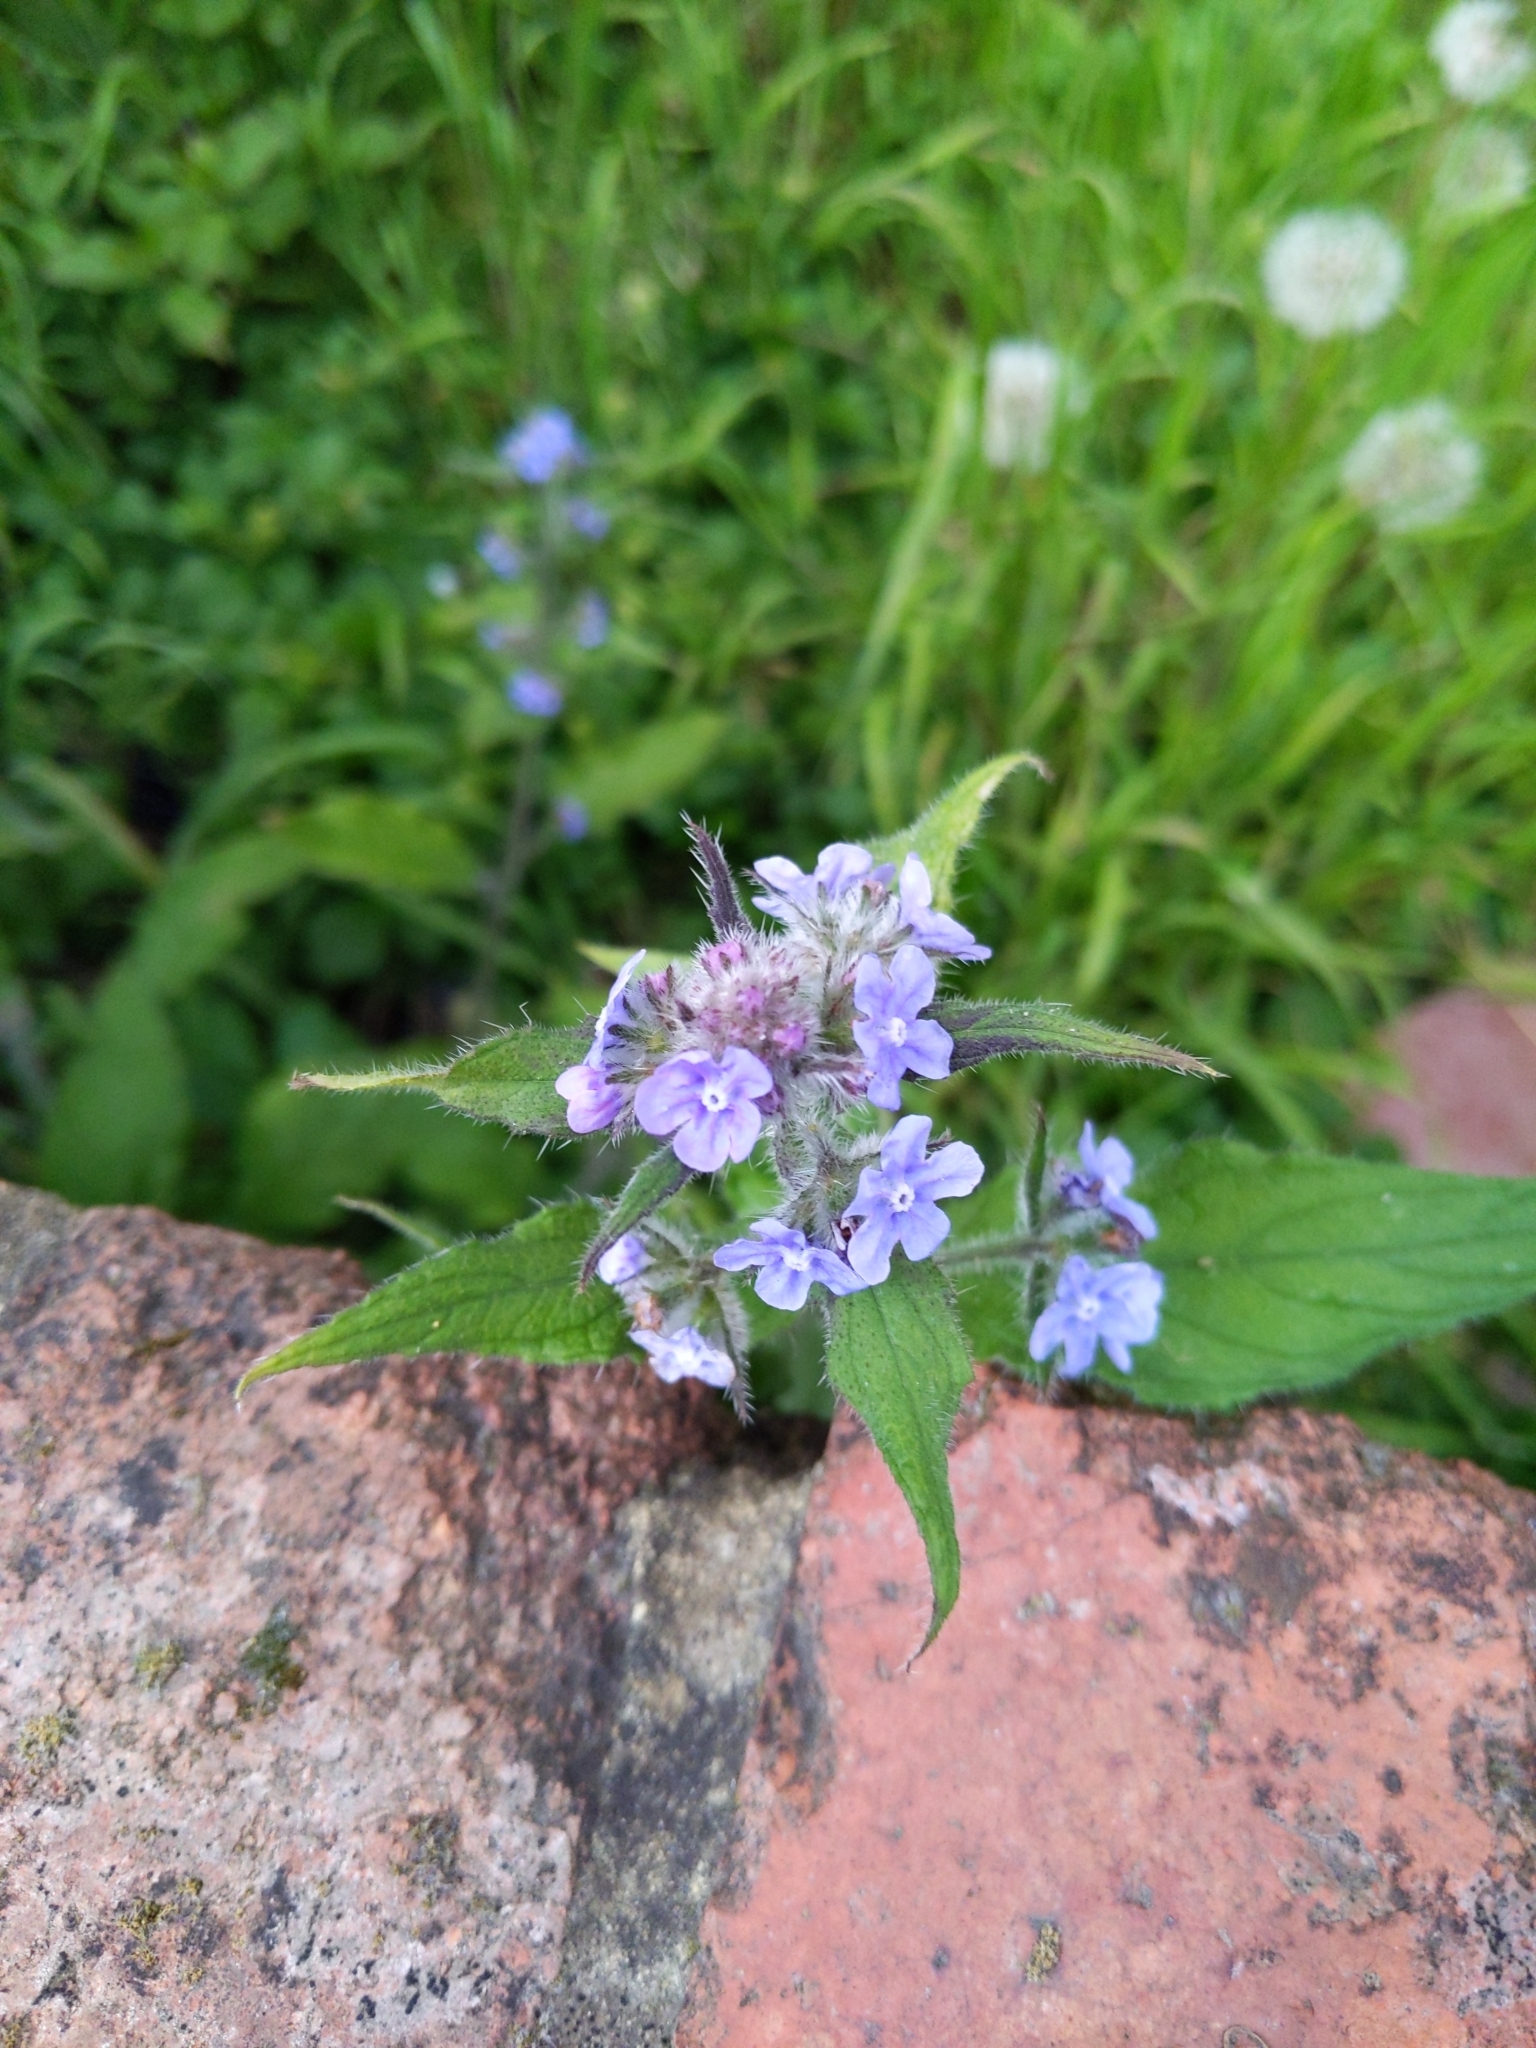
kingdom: Plantae
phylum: Tracheophyta
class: Magnoliopsida
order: Boraginales
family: Boraginaceae
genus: Pentaglottis
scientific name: Pentaglottis sempervirens
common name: Green alkanet
